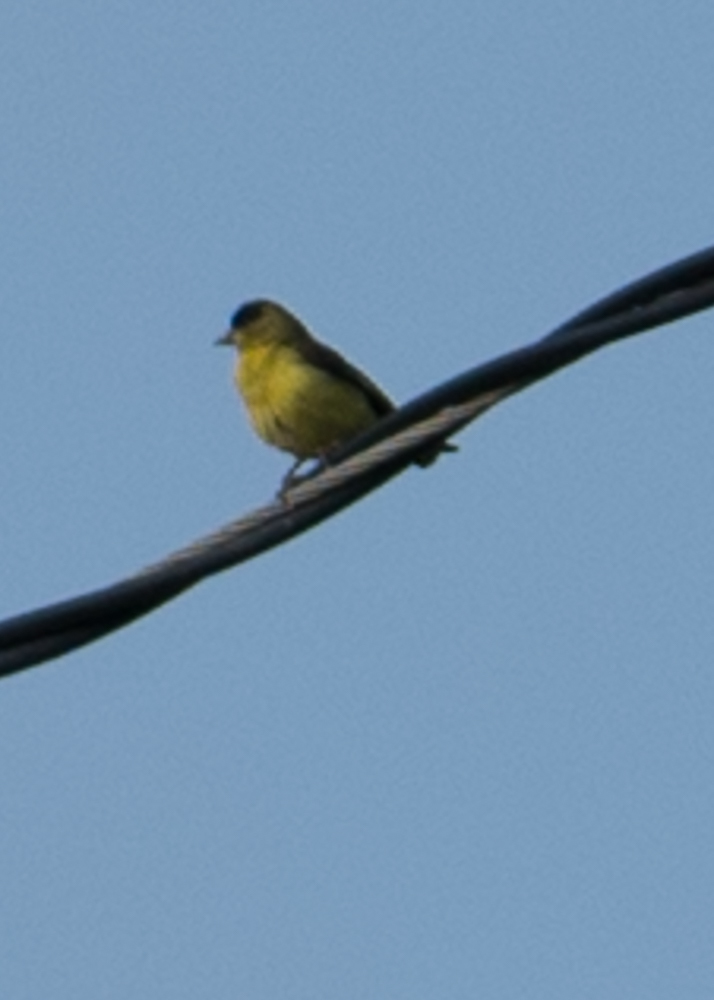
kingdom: Animalia
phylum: Chordata
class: Aves
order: Passeriformes
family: Fringillidae
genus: Spinus
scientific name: Spinus psaltria
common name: Lesser goldfinch
